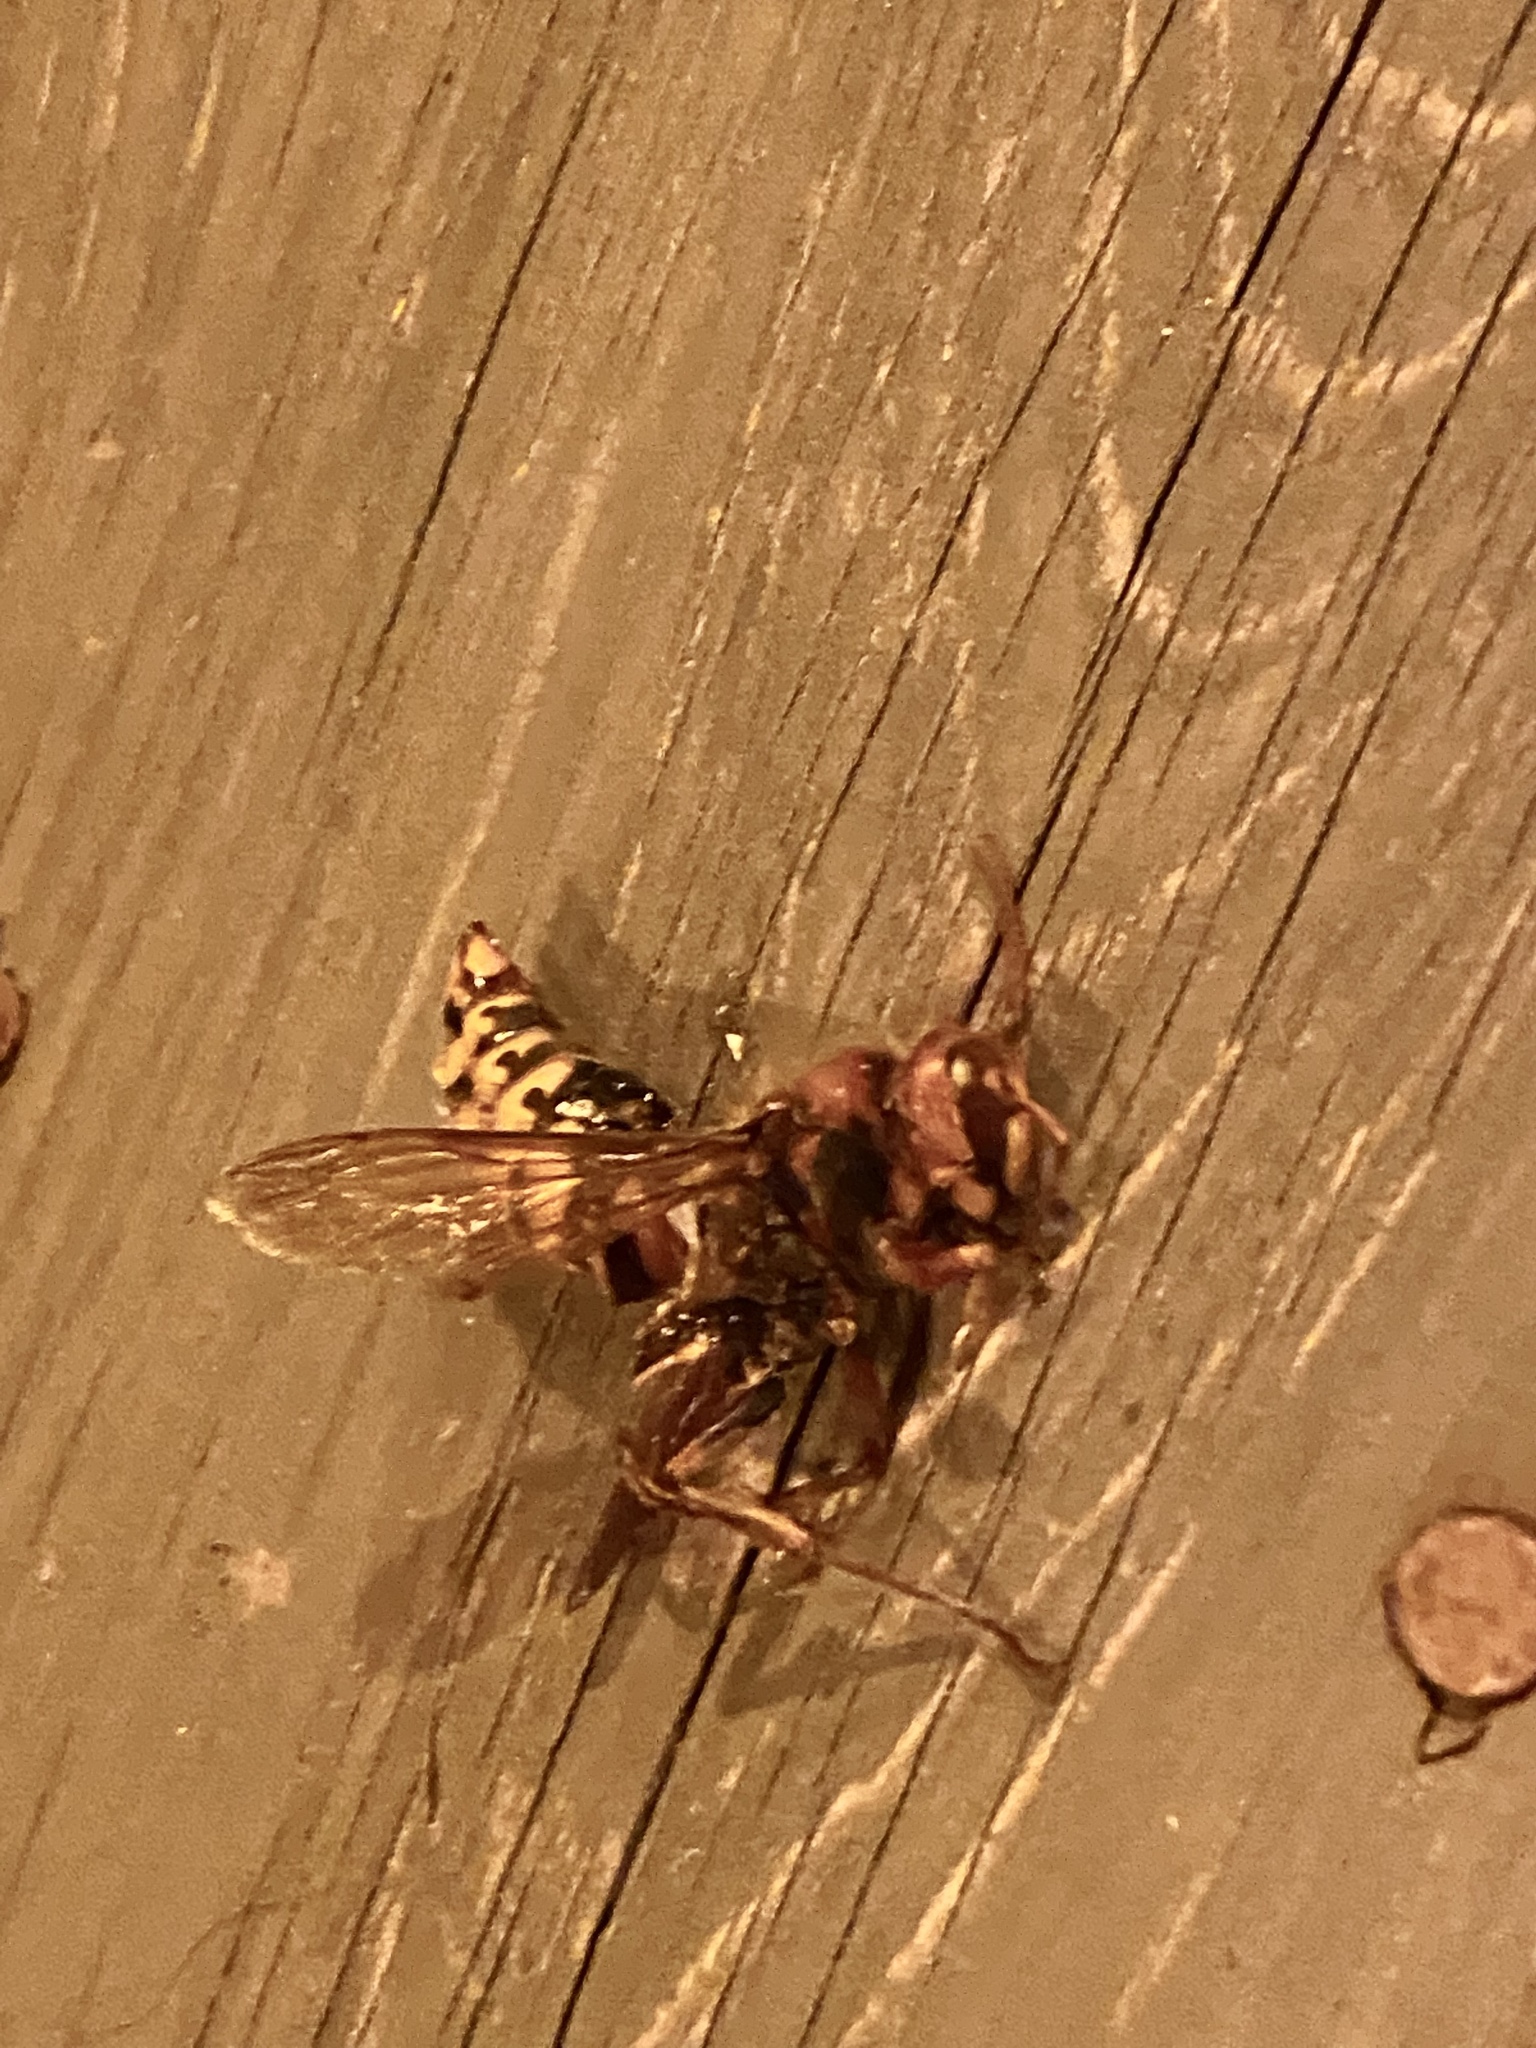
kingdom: Animalia
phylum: Arthropoda
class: Insecta
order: Hymenoptera
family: Vespidae
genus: Vespa
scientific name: Vespa crabro
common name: Hornet
